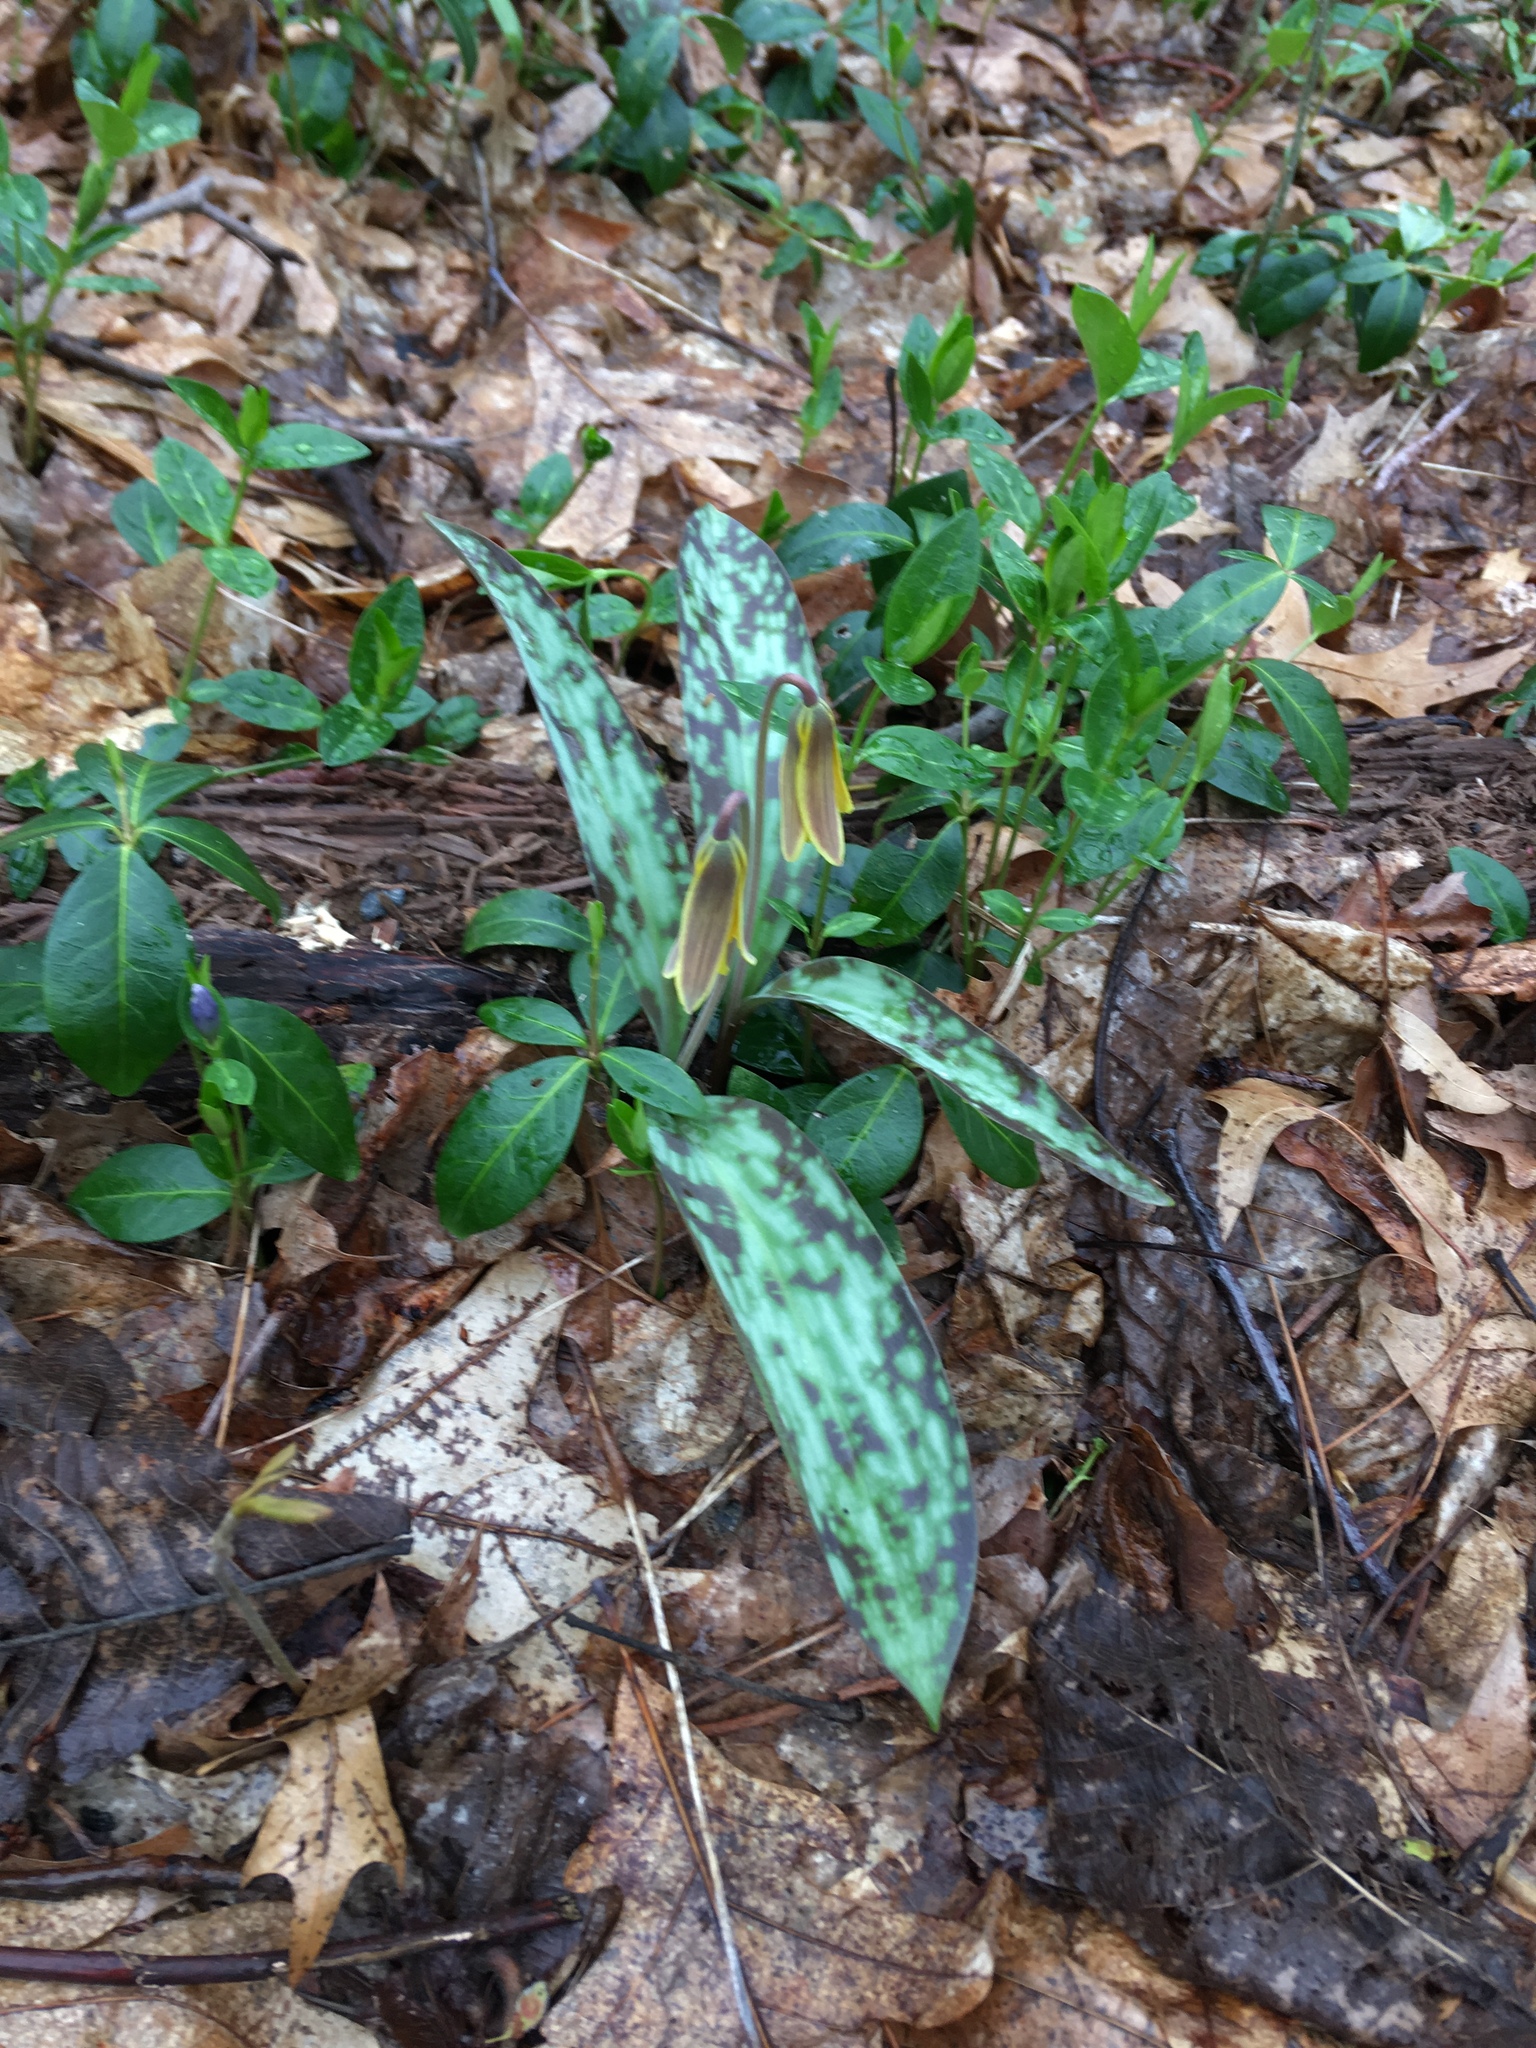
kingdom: Plantae
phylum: Tracheophyta
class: Liliopsida
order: Liliales
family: Liliaceae
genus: Erythronium
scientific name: Erythronium americanum
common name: Yellow adder's-tongue
